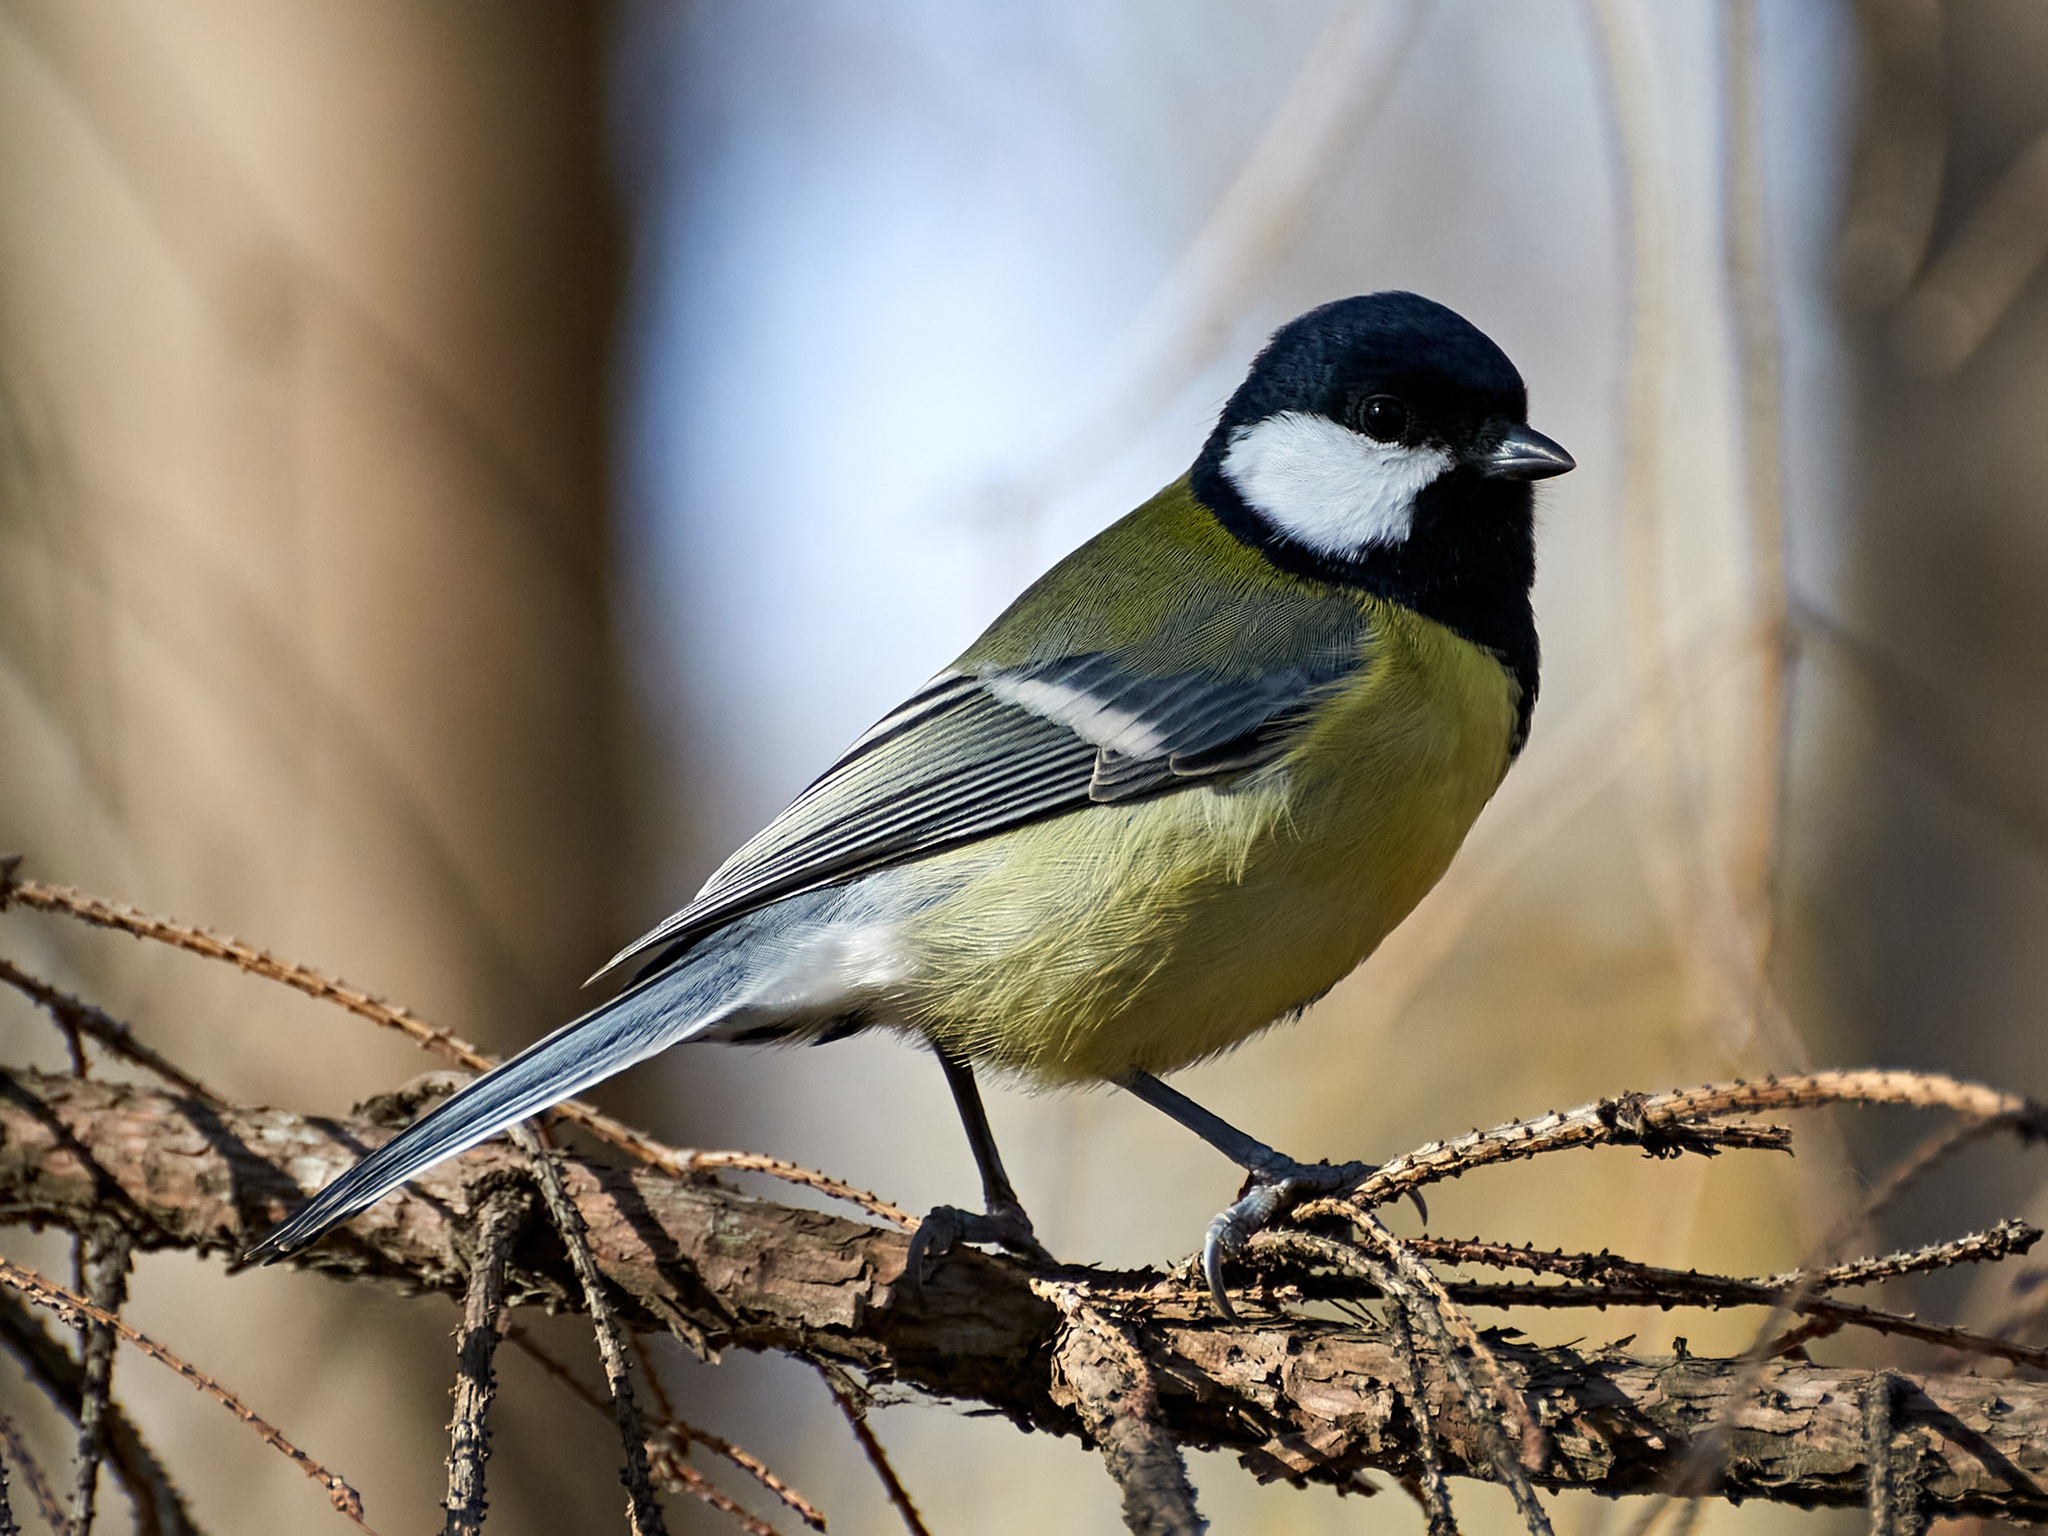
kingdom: Animalia
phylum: Chordata
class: Aves
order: Passeriformes
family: Paridae
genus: Parus
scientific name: Parus major
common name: Great tit
